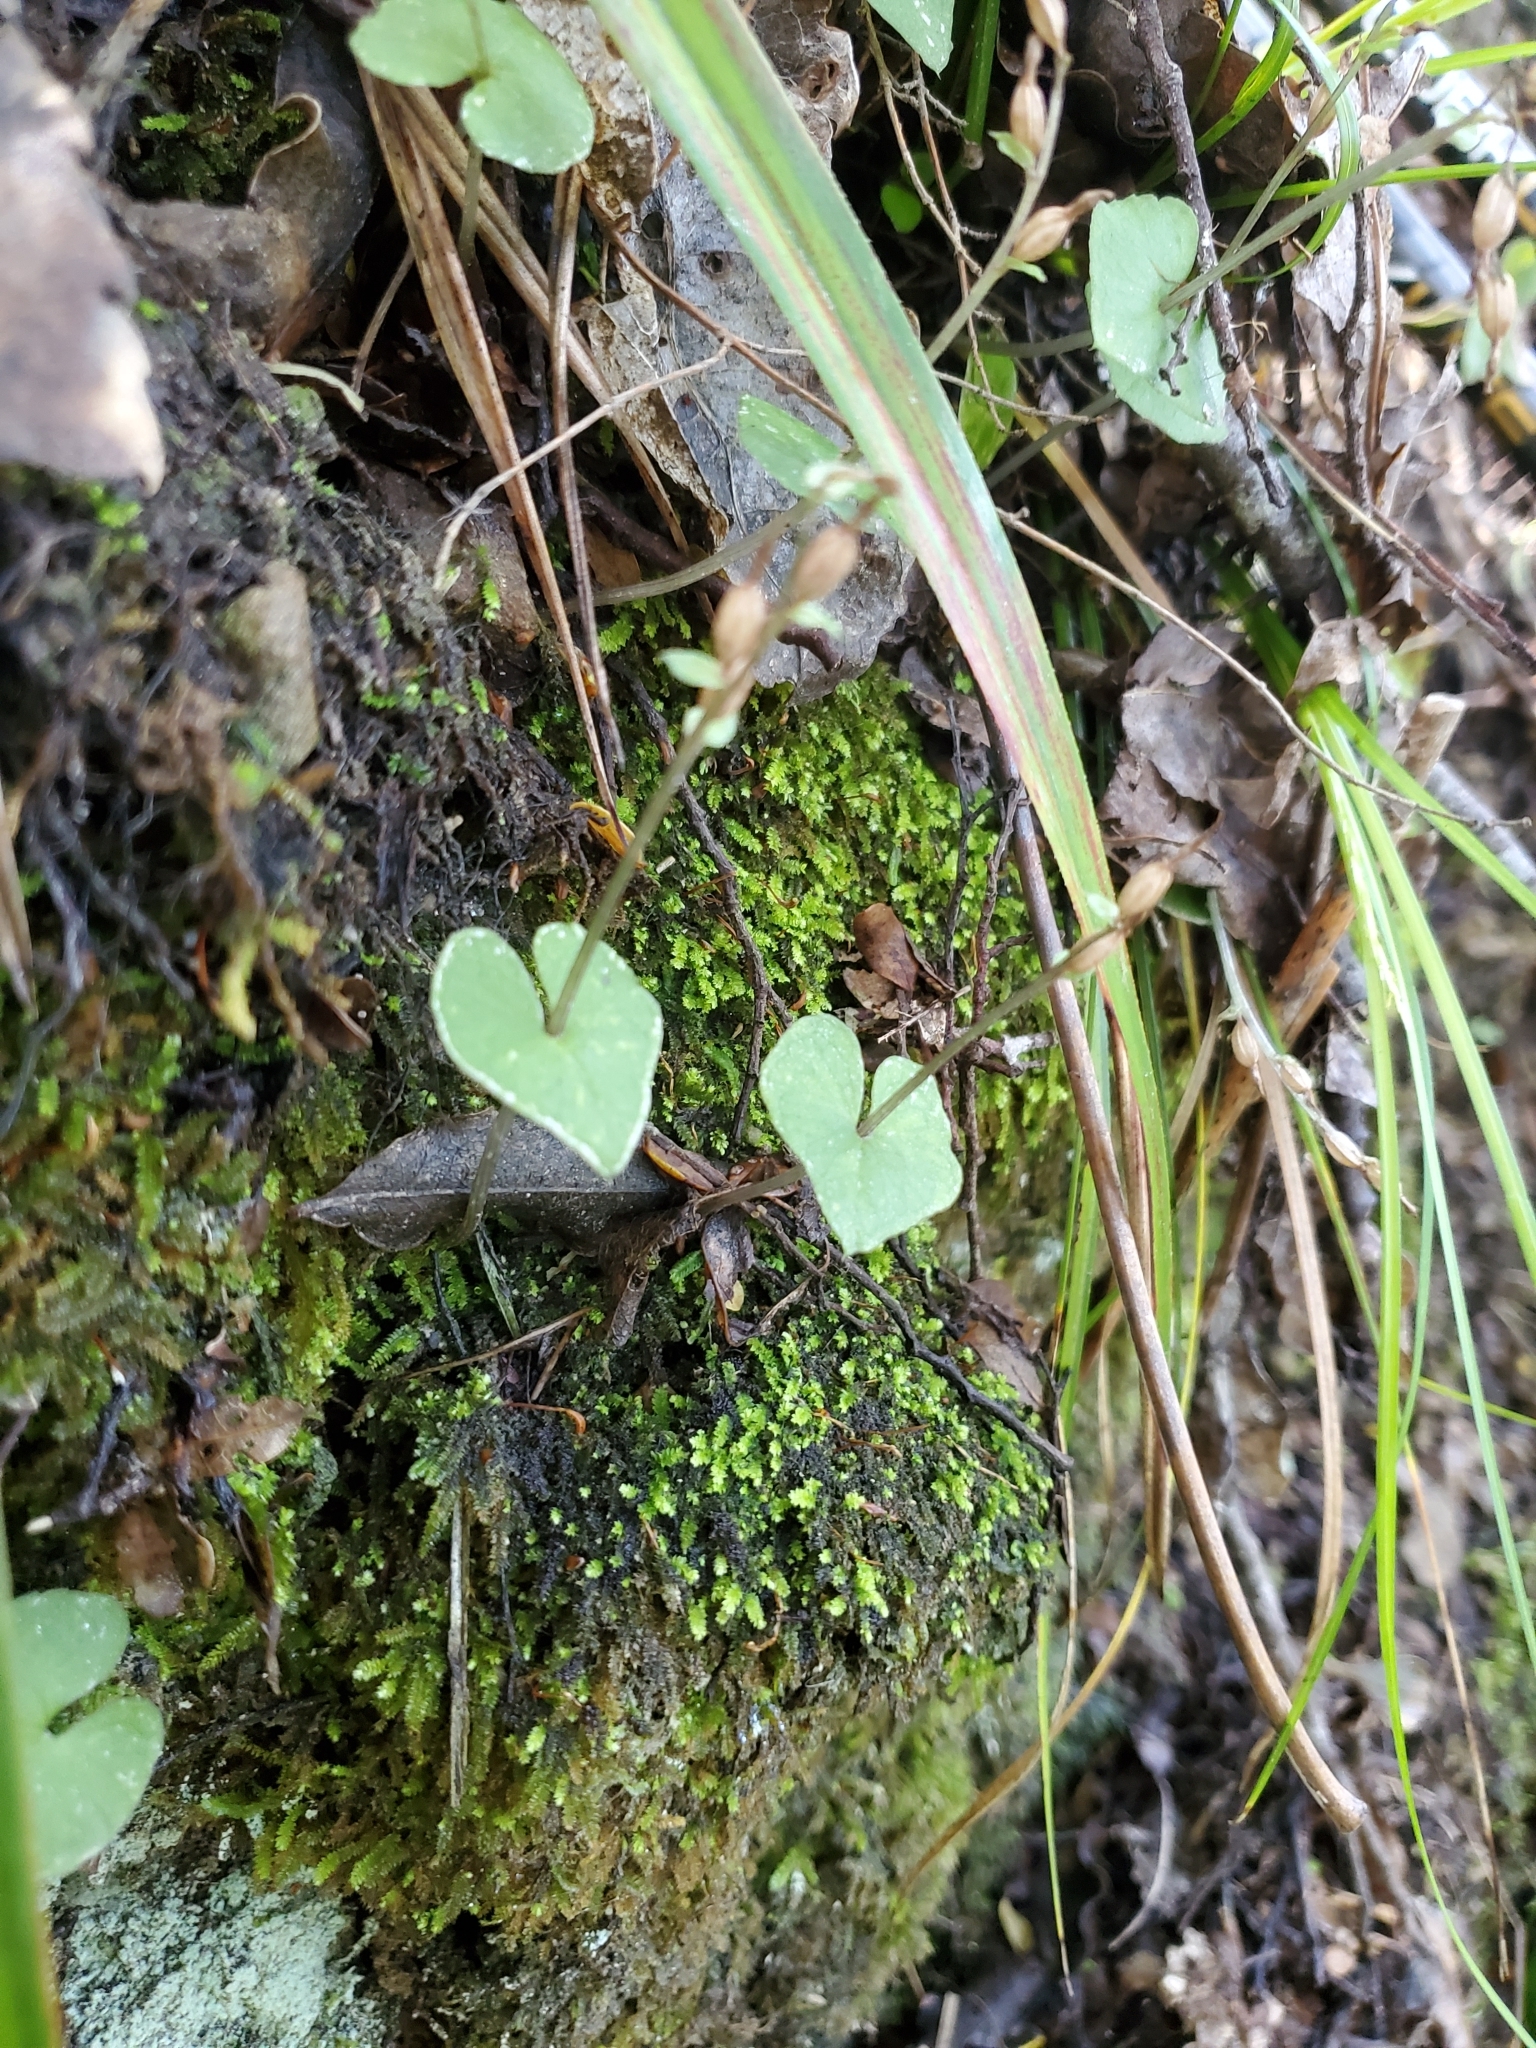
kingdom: Plantae
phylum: Tracheophyta
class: Liliopsida
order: Asparagales
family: Orchidaceae
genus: Acianthus
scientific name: Acianthus sinclairii
